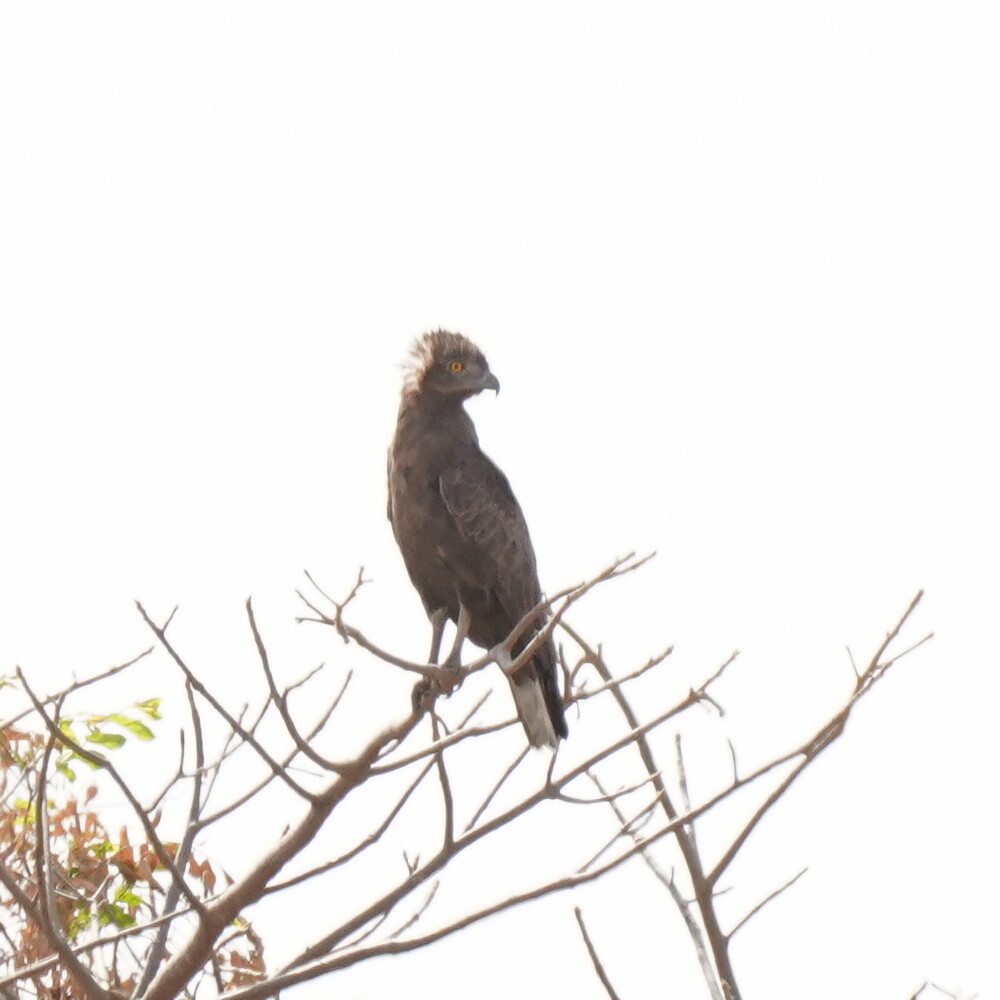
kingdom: Animalia
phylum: Chordata
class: Aves
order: Accipitriformes
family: Accipitridae
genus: Circaetus
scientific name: Circaetus cinereus
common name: Brown snake eagle
